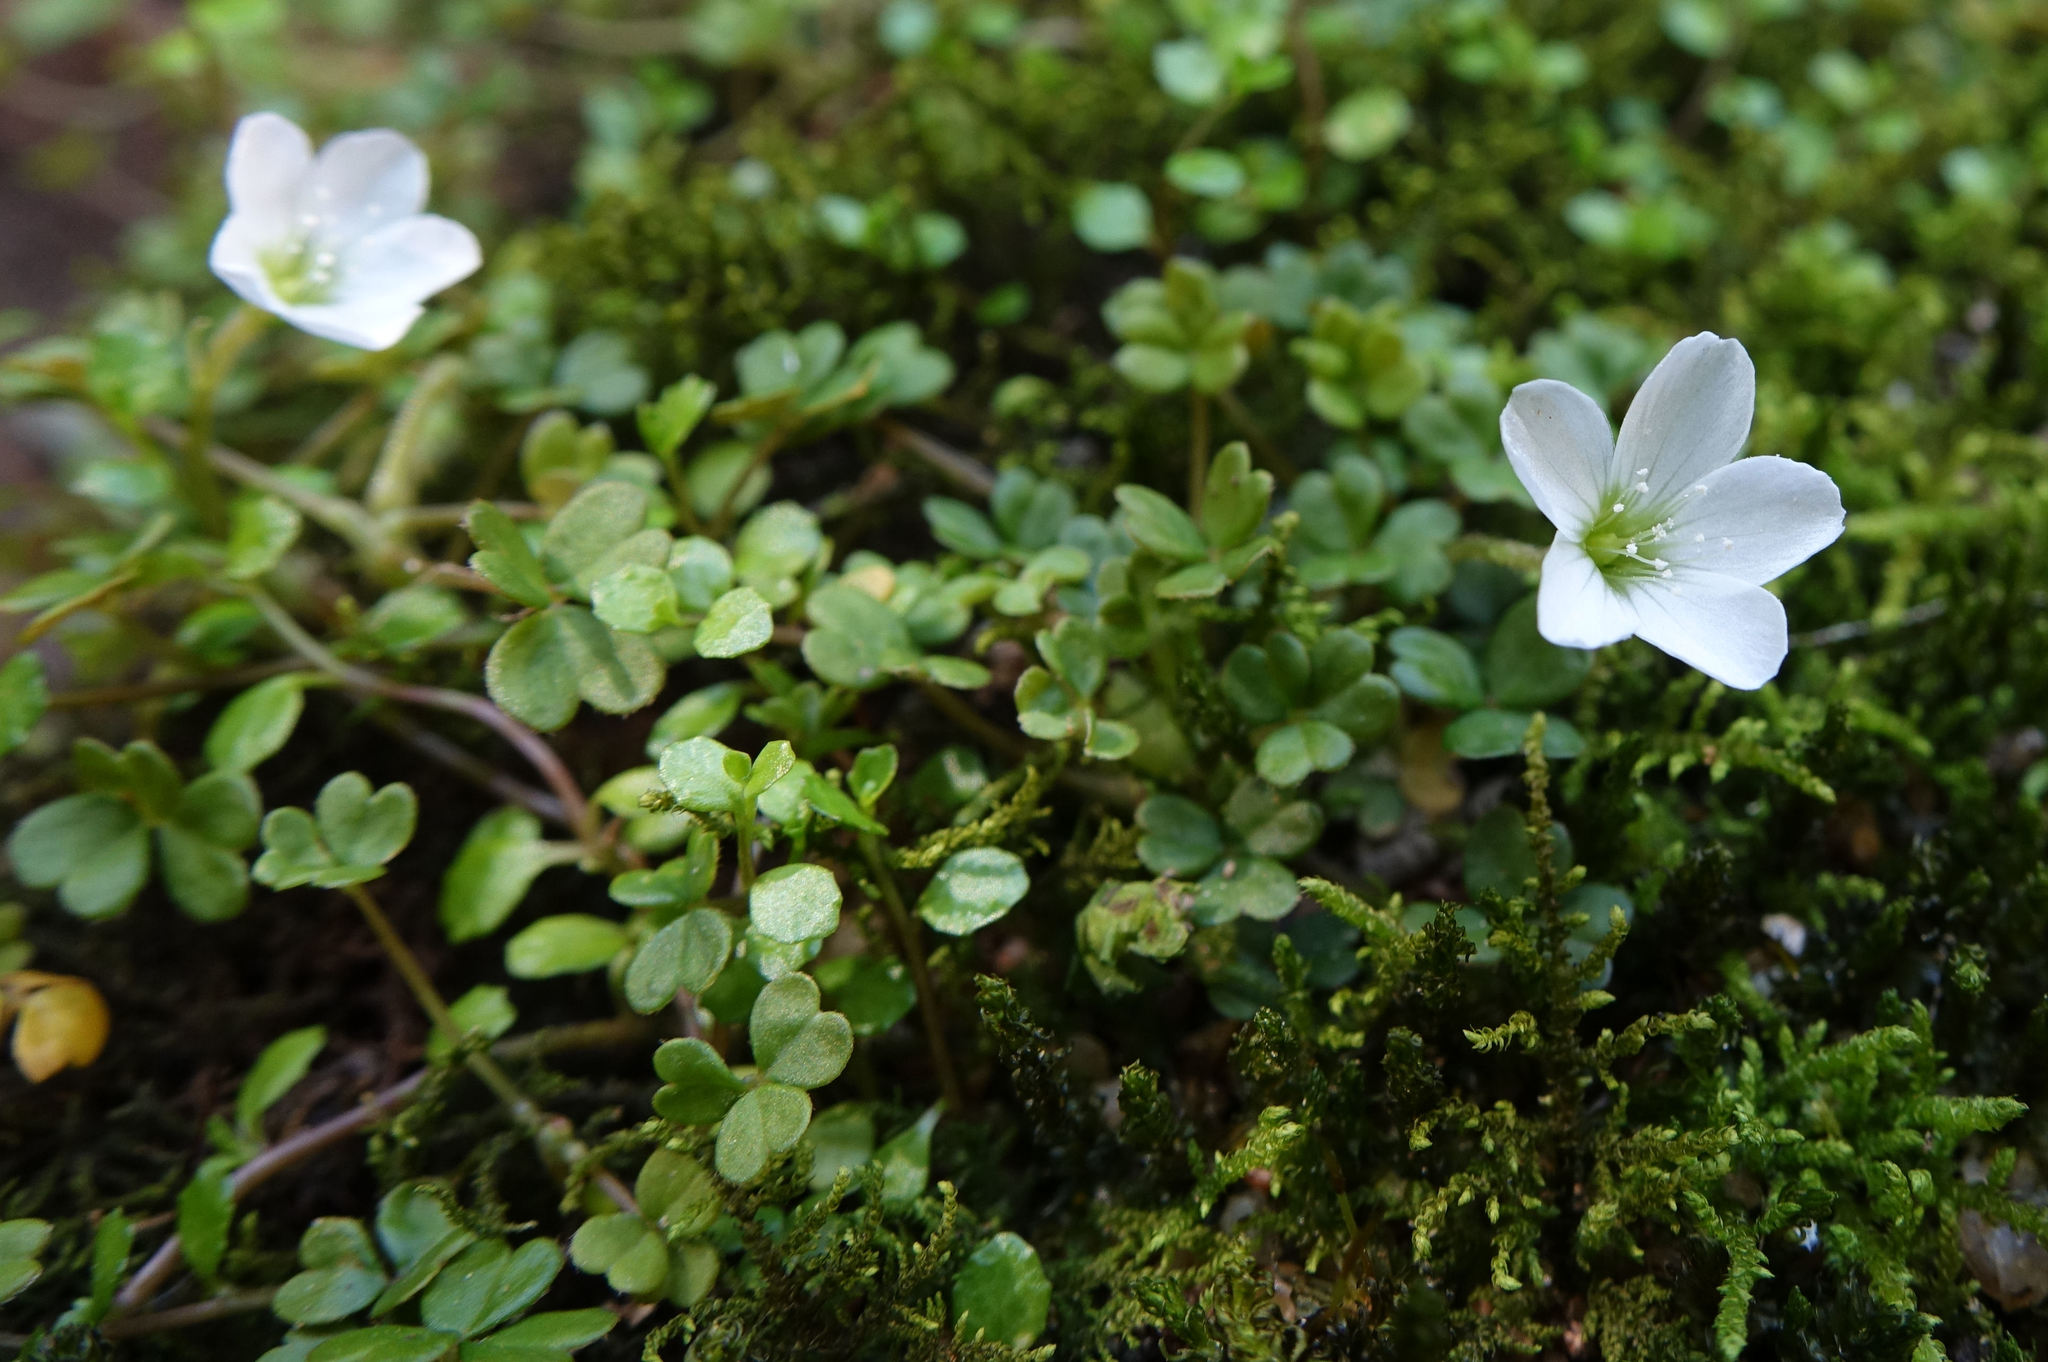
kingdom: Plantae
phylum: Tracheophyta
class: Magnoliopsida
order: Oxalidales
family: Oxalidaceae
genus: Oxalis
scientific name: Oxalis magellanica
